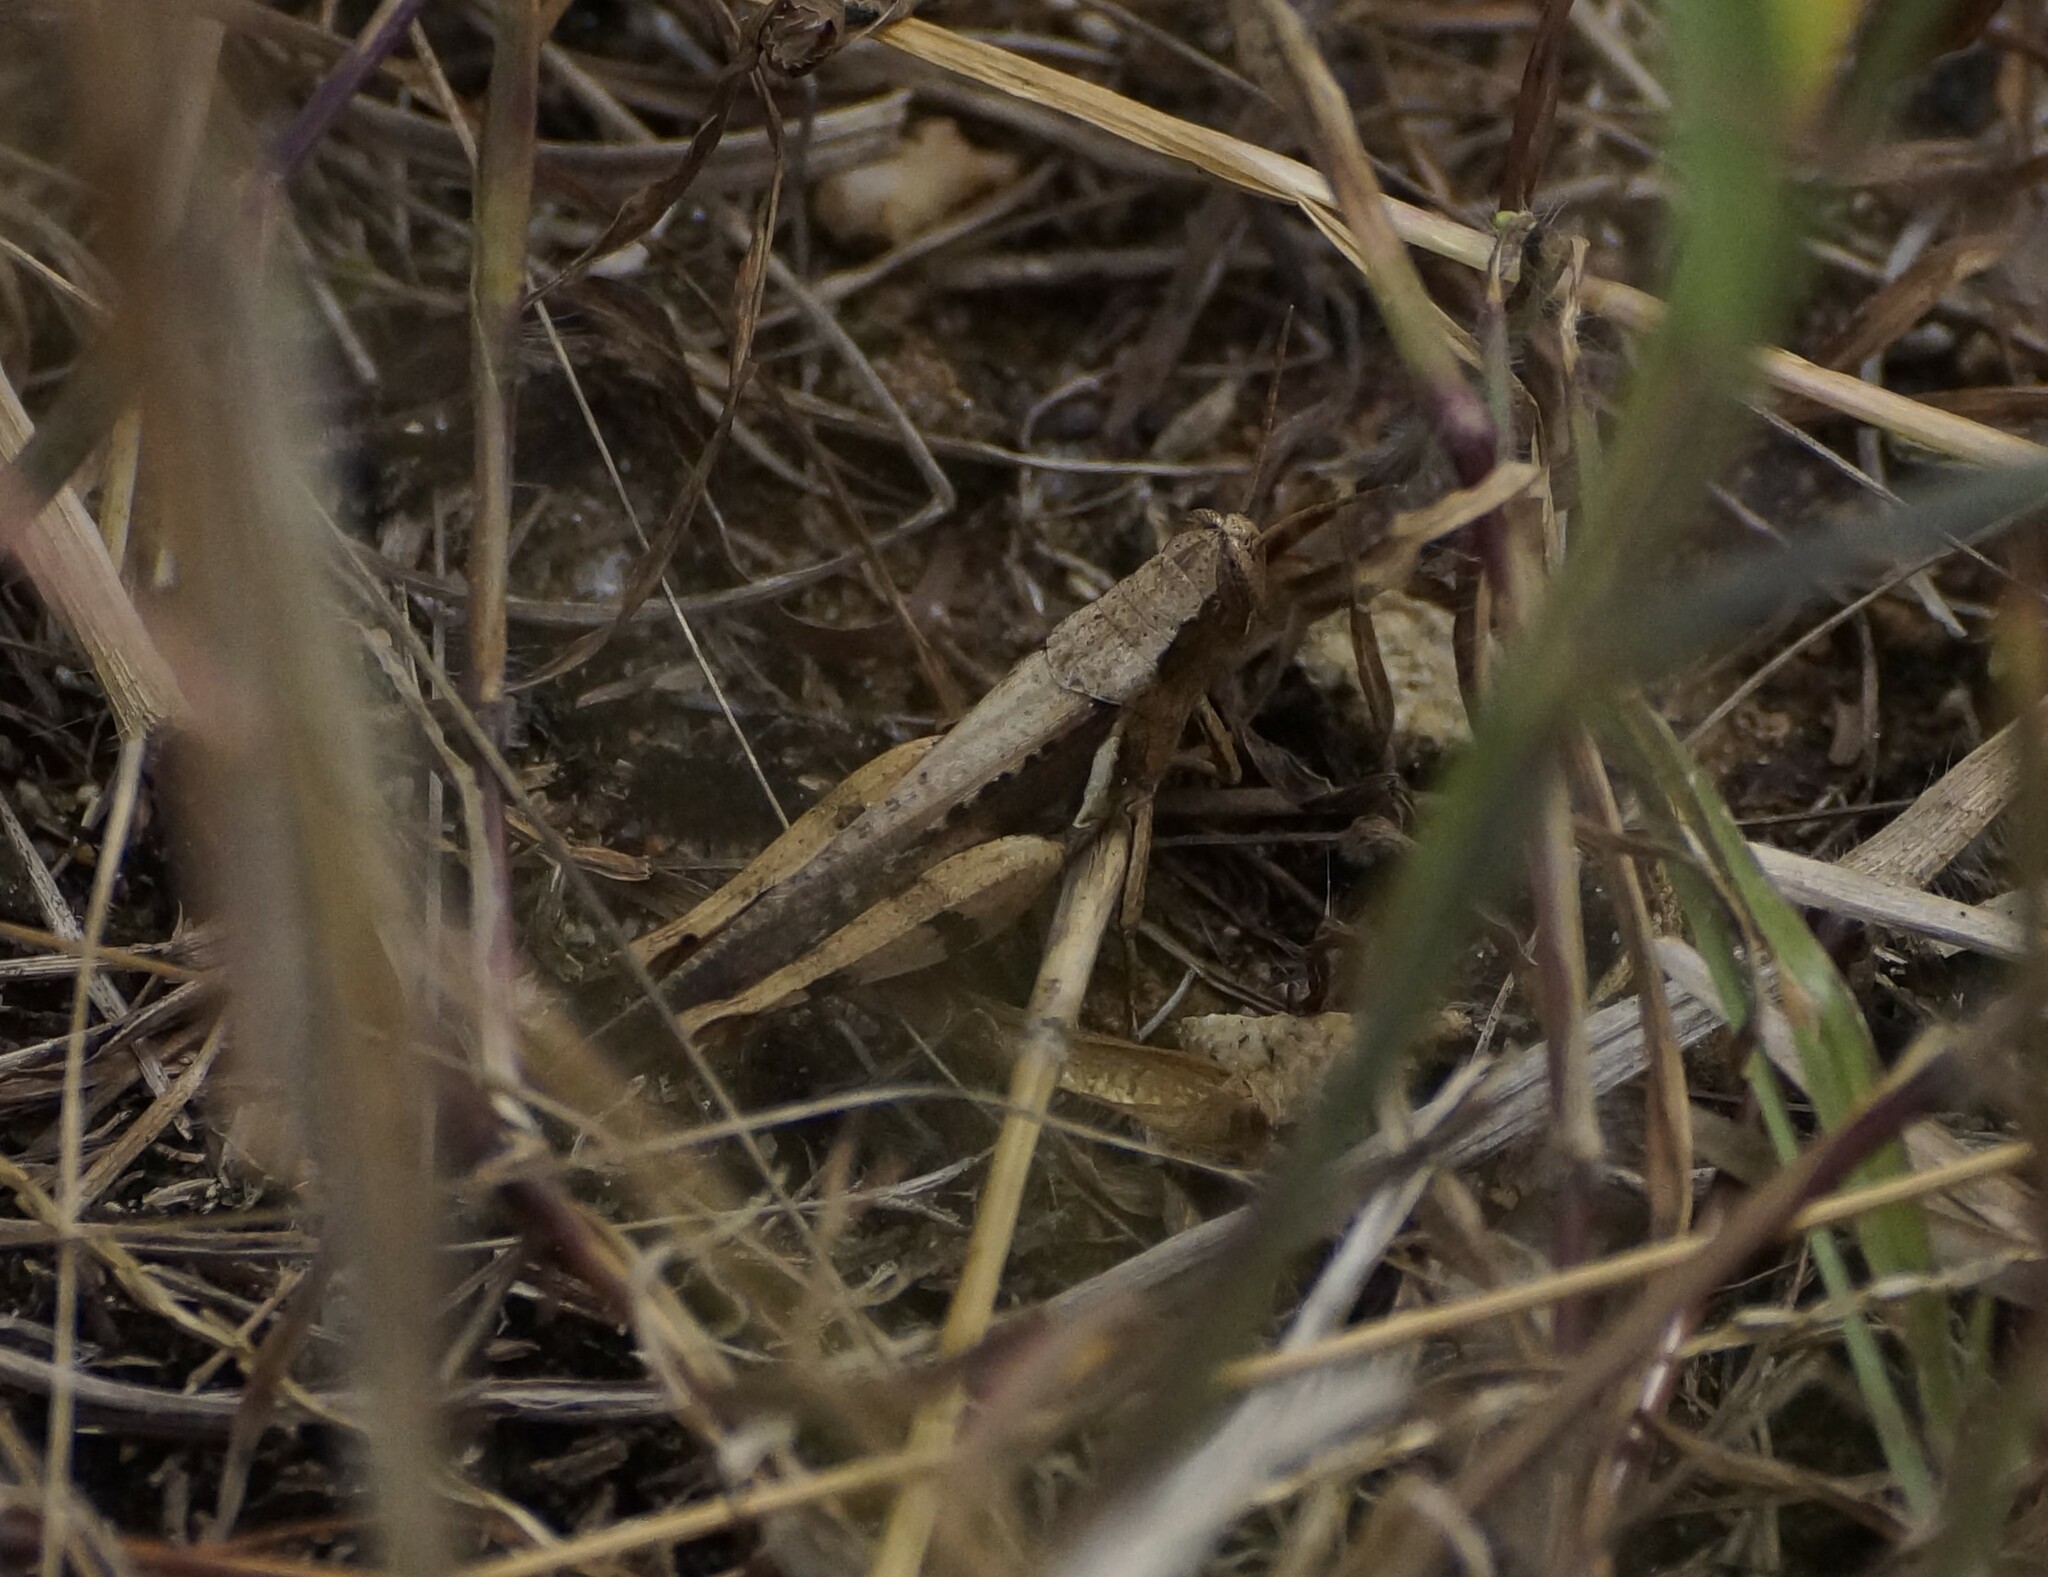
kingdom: Animalia
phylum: Arthropoda
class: Insecta
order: Orthoptera
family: Acrididae
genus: Stenocatantops
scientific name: Stenocatantops angustifrons
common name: Common tropical sharptail
